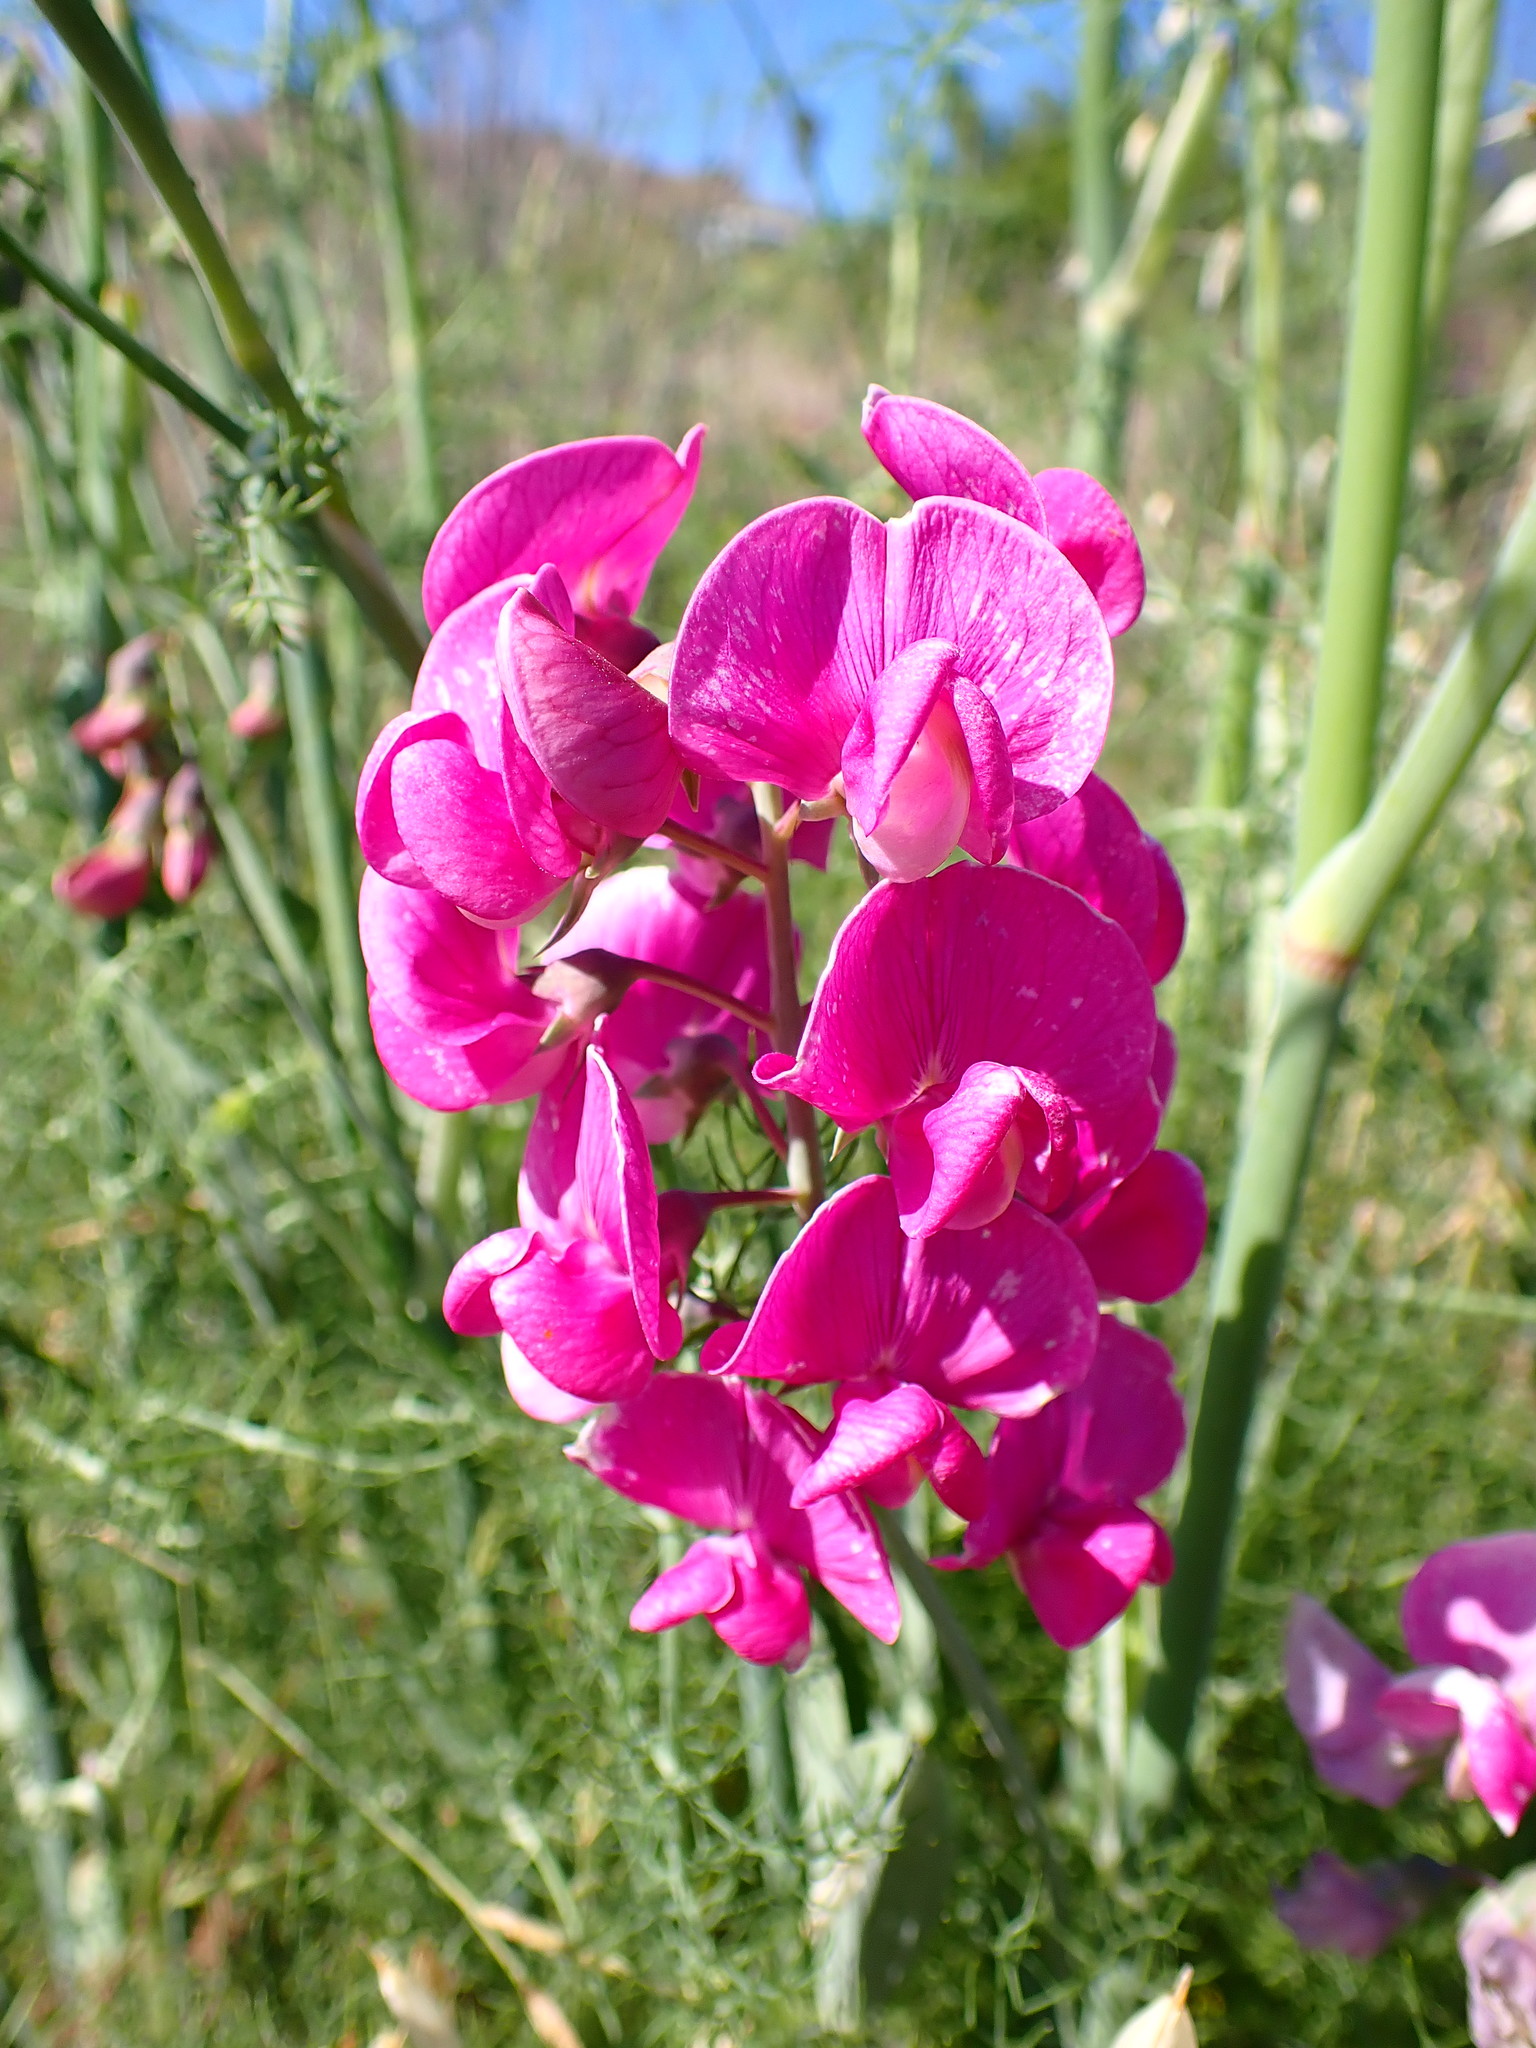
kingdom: Plantae
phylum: Tracheophyta
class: Magnoliopsida
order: Fabales
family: Fabaceae
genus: Lathyrus
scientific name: Lathyrus latifolius
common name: Perennial pea
